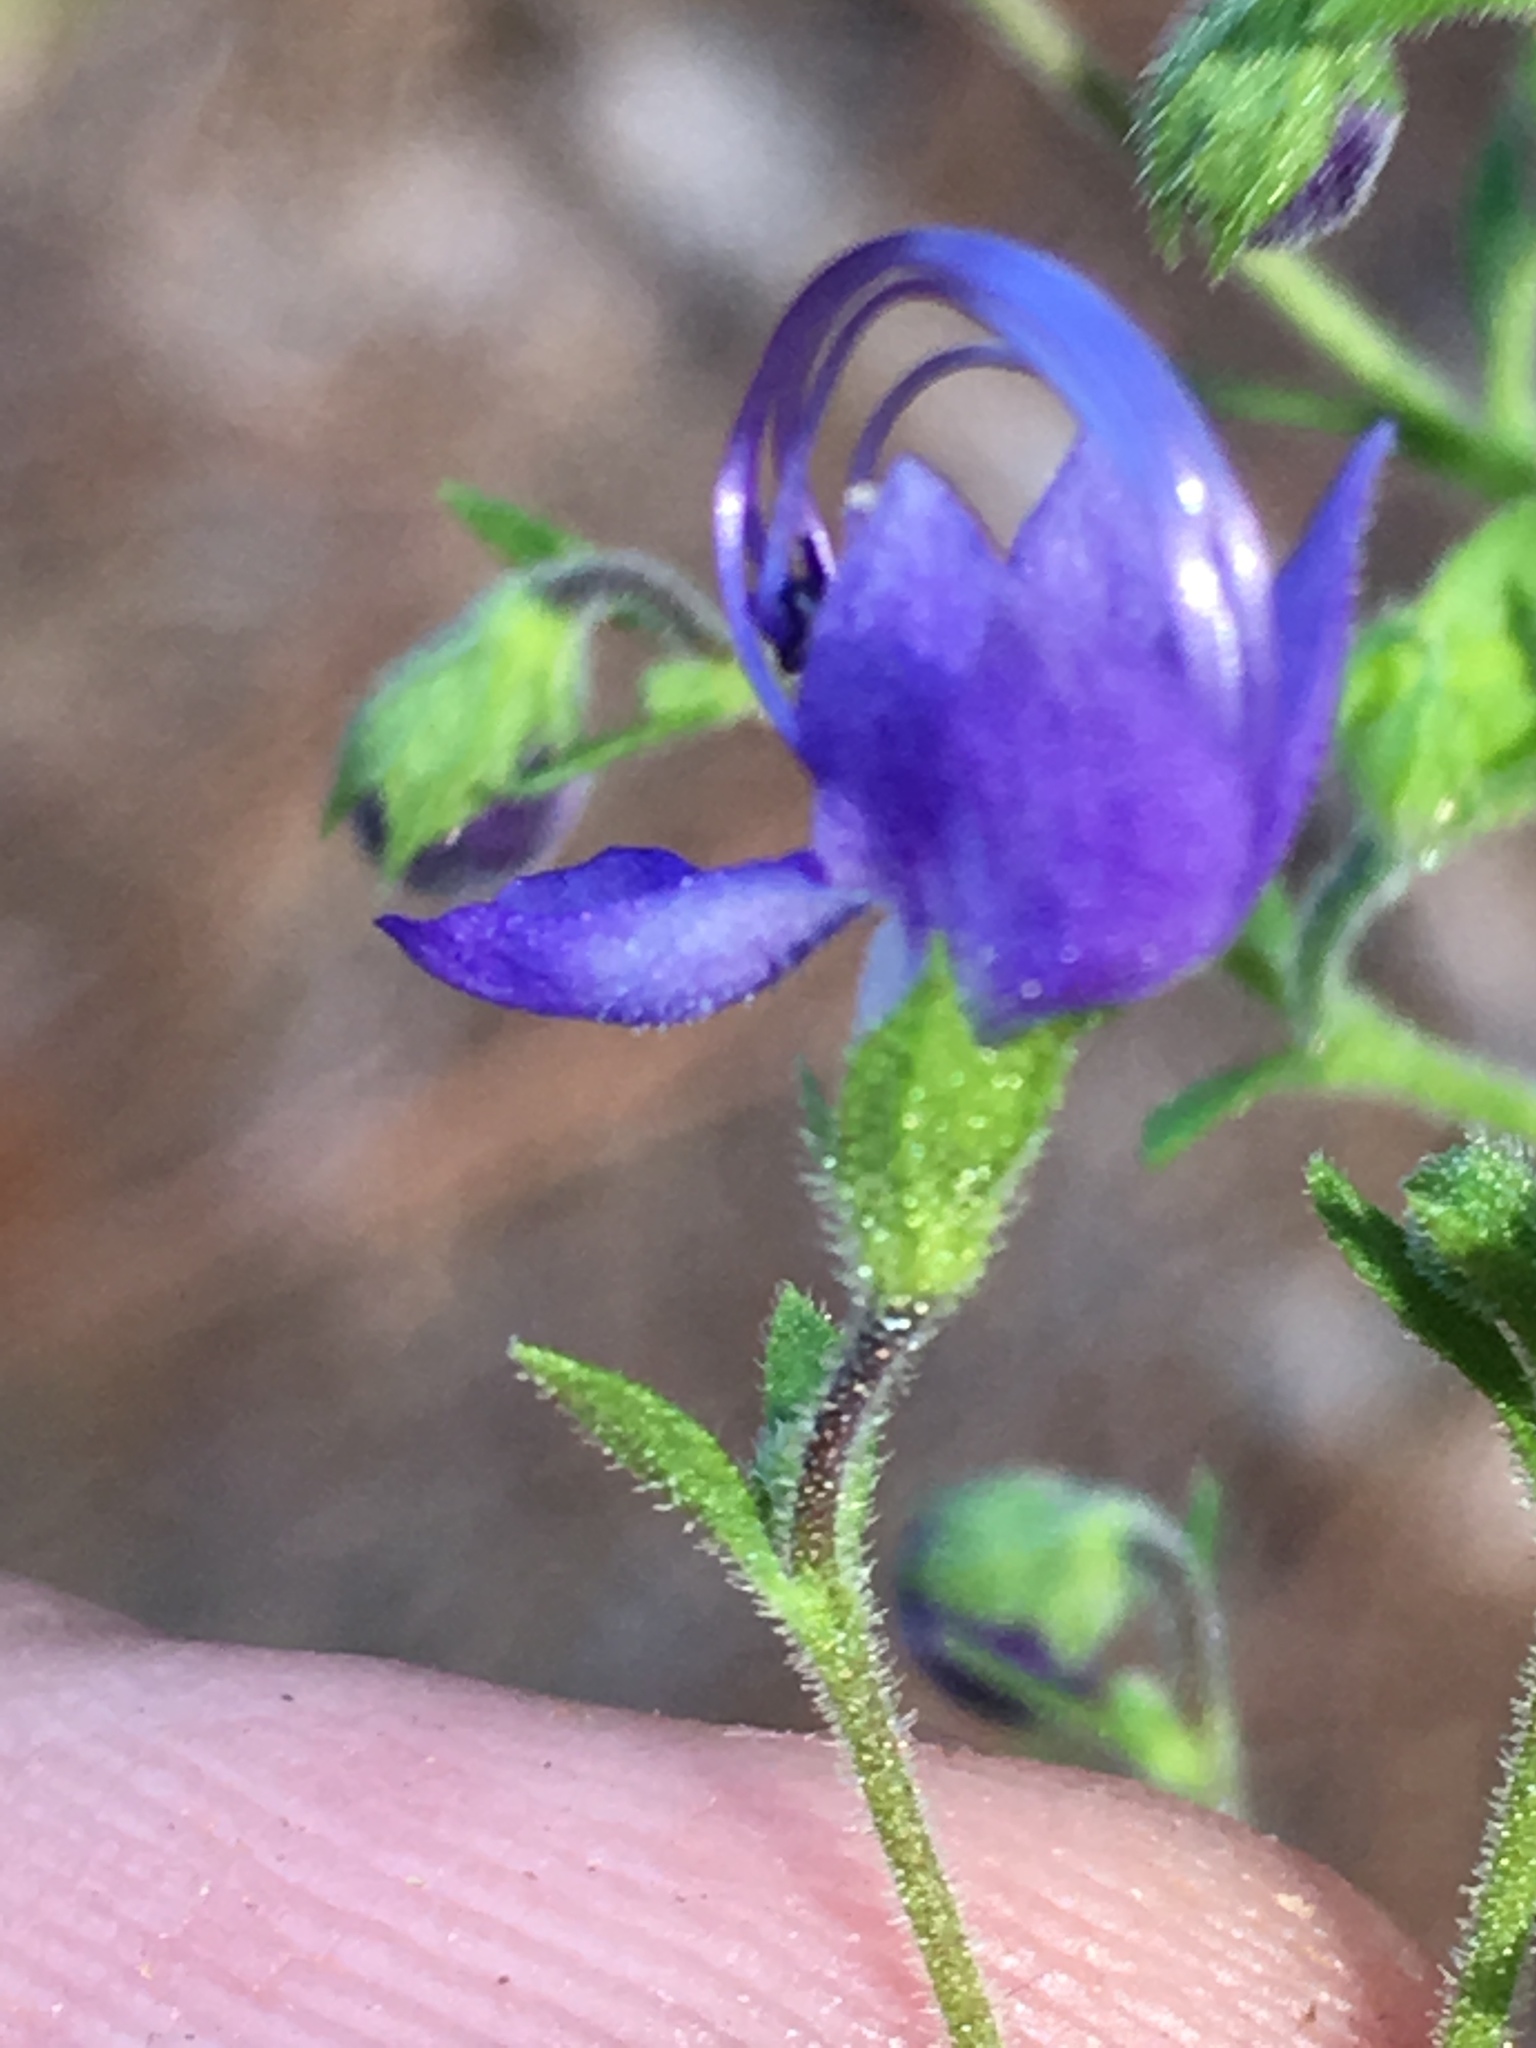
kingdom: Plantae
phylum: Tracheophyta
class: Magnoliopsida
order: Lamiales
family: Lamiaceae
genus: Trichostema
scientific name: Trichostema dichotomum
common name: Bastard pennyroyal
